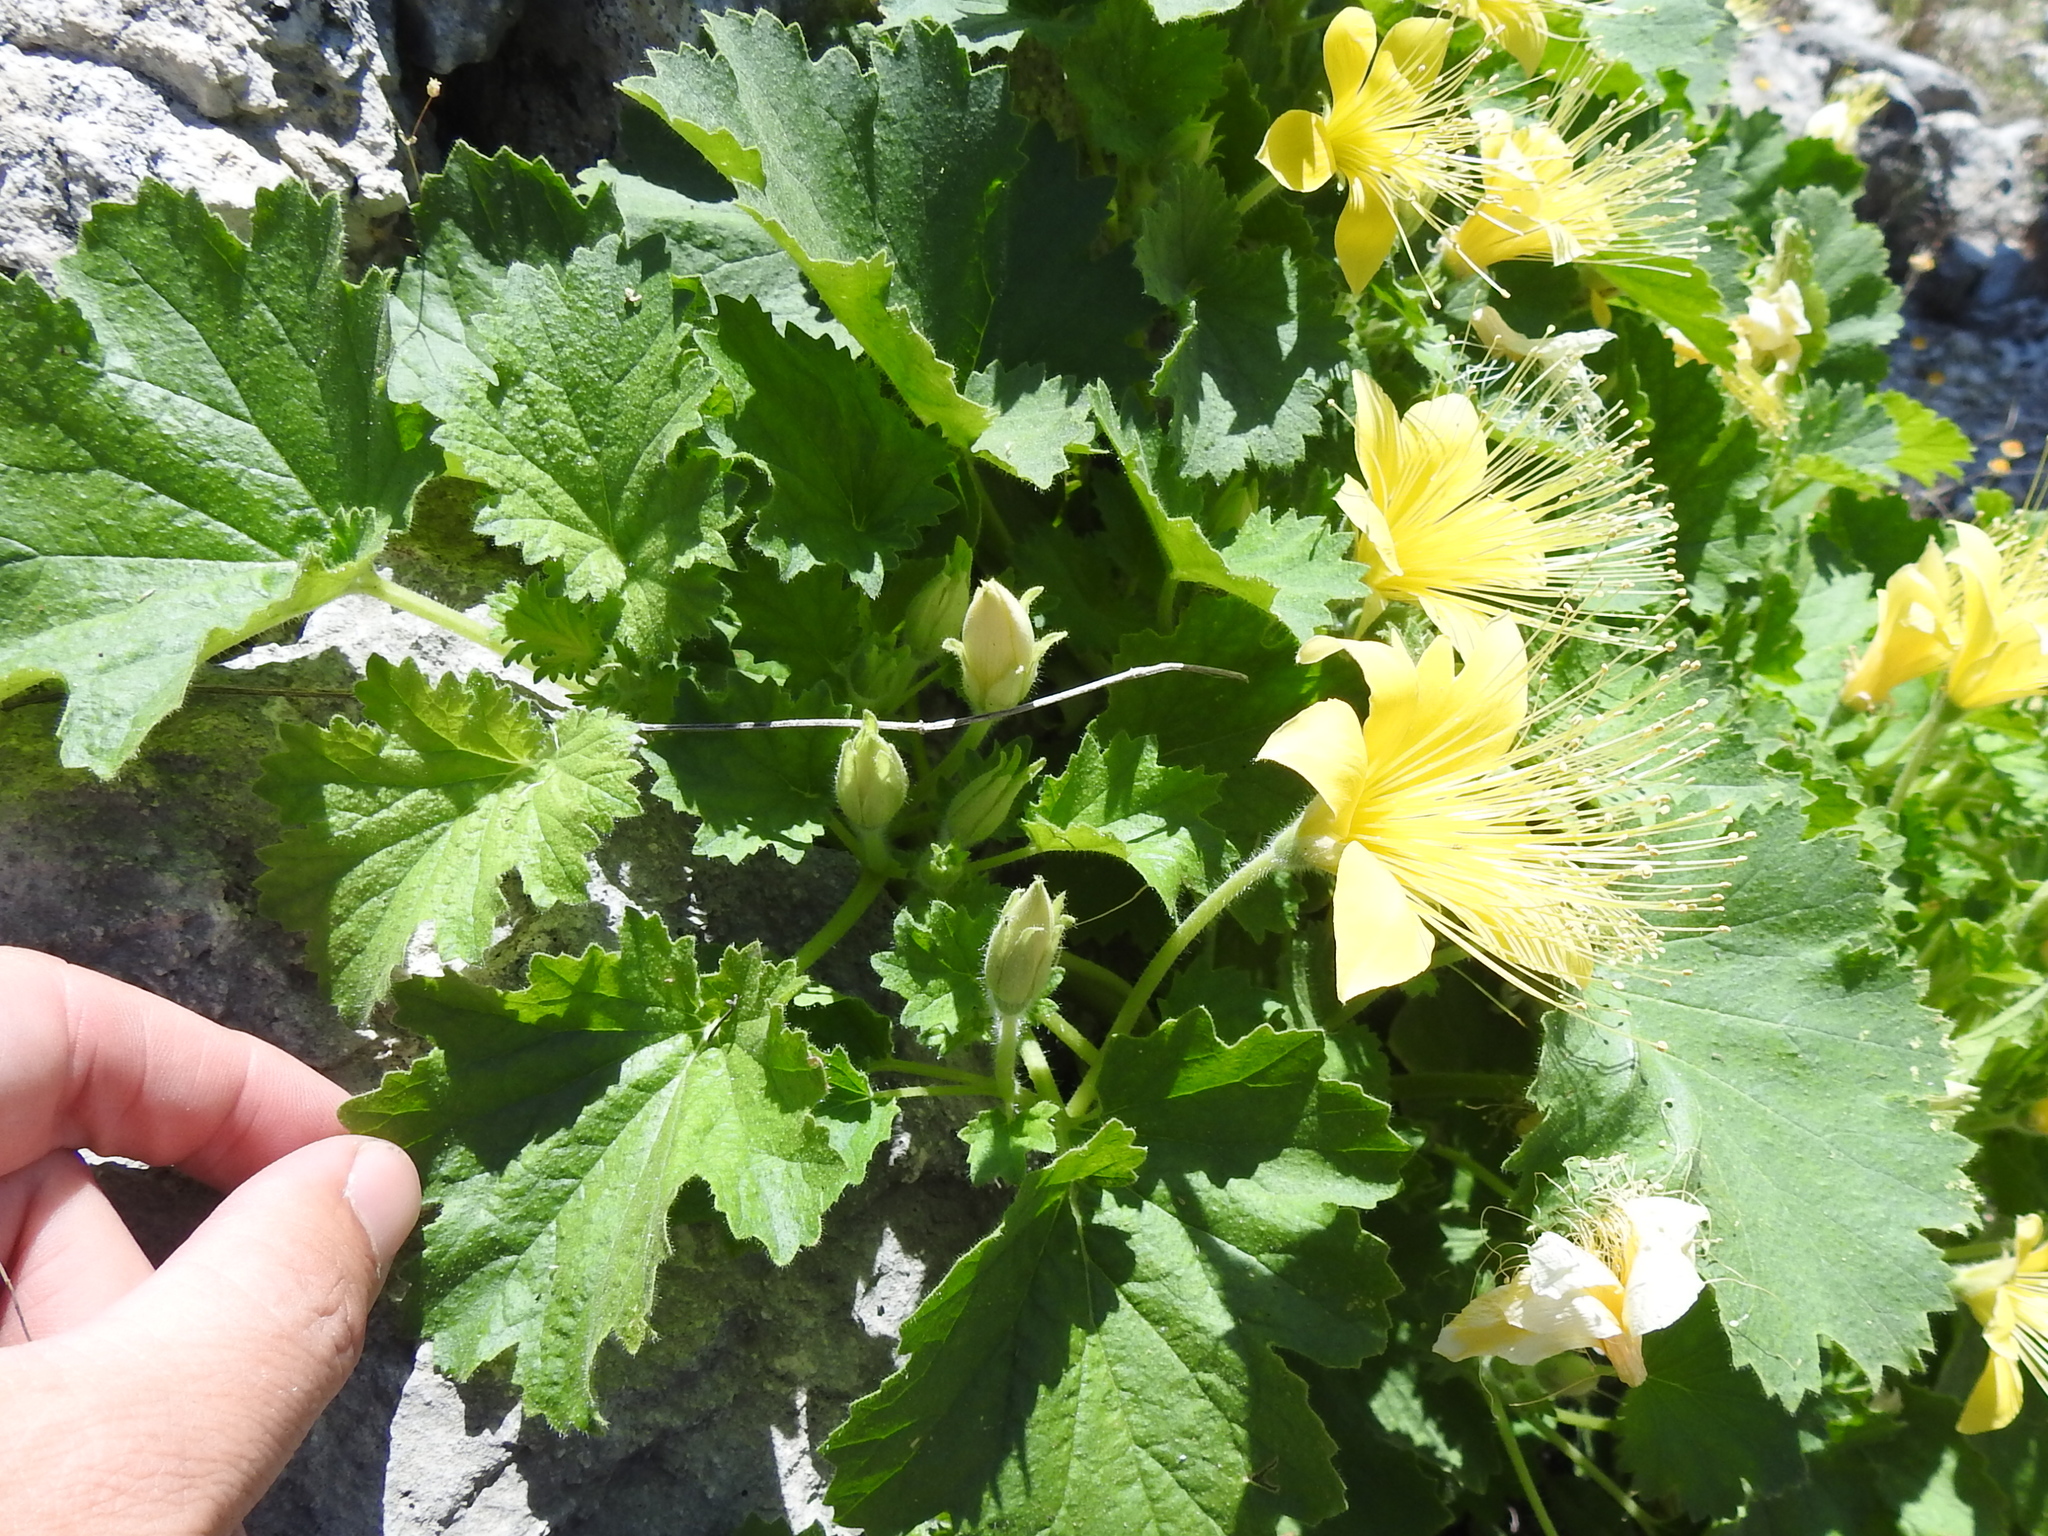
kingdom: Plantae
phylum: Tracheophyta
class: Magnoliopsida
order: Cornales
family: Loasaceae
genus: Eucnide
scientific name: Eucnide bartonioides
